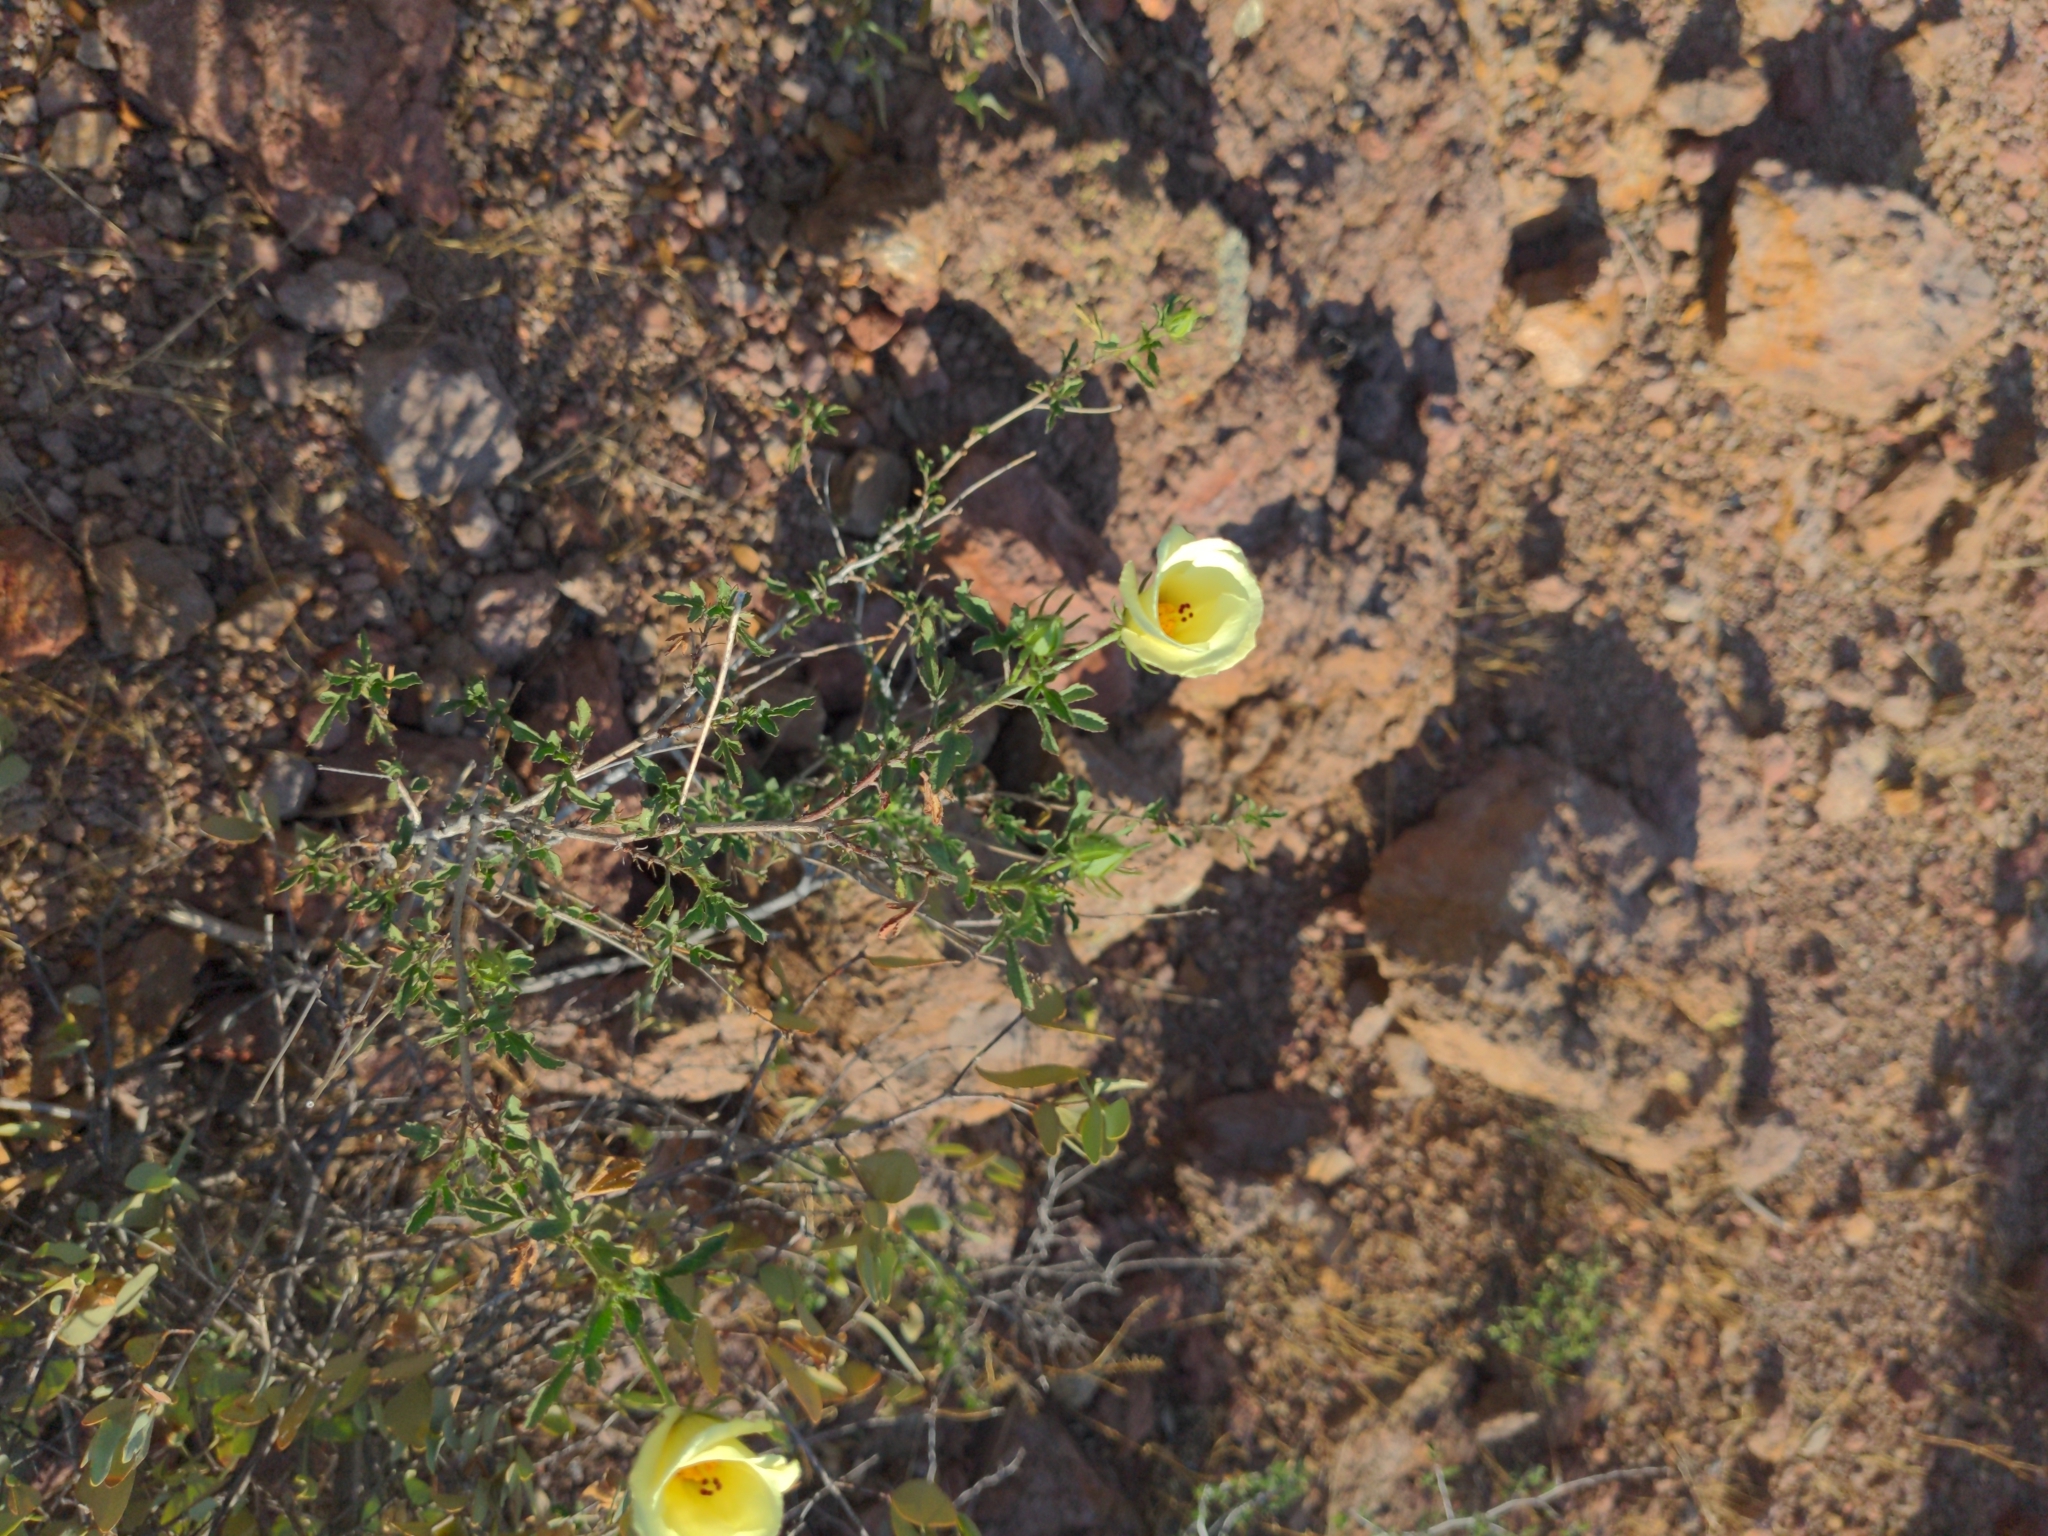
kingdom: Plantae
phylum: Tracheophyta
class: Magnoliopsida
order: Malvales
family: Malvaceae
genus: Hibiscus
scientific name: Hibiscus coulteri
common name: Desert rose-mallow
